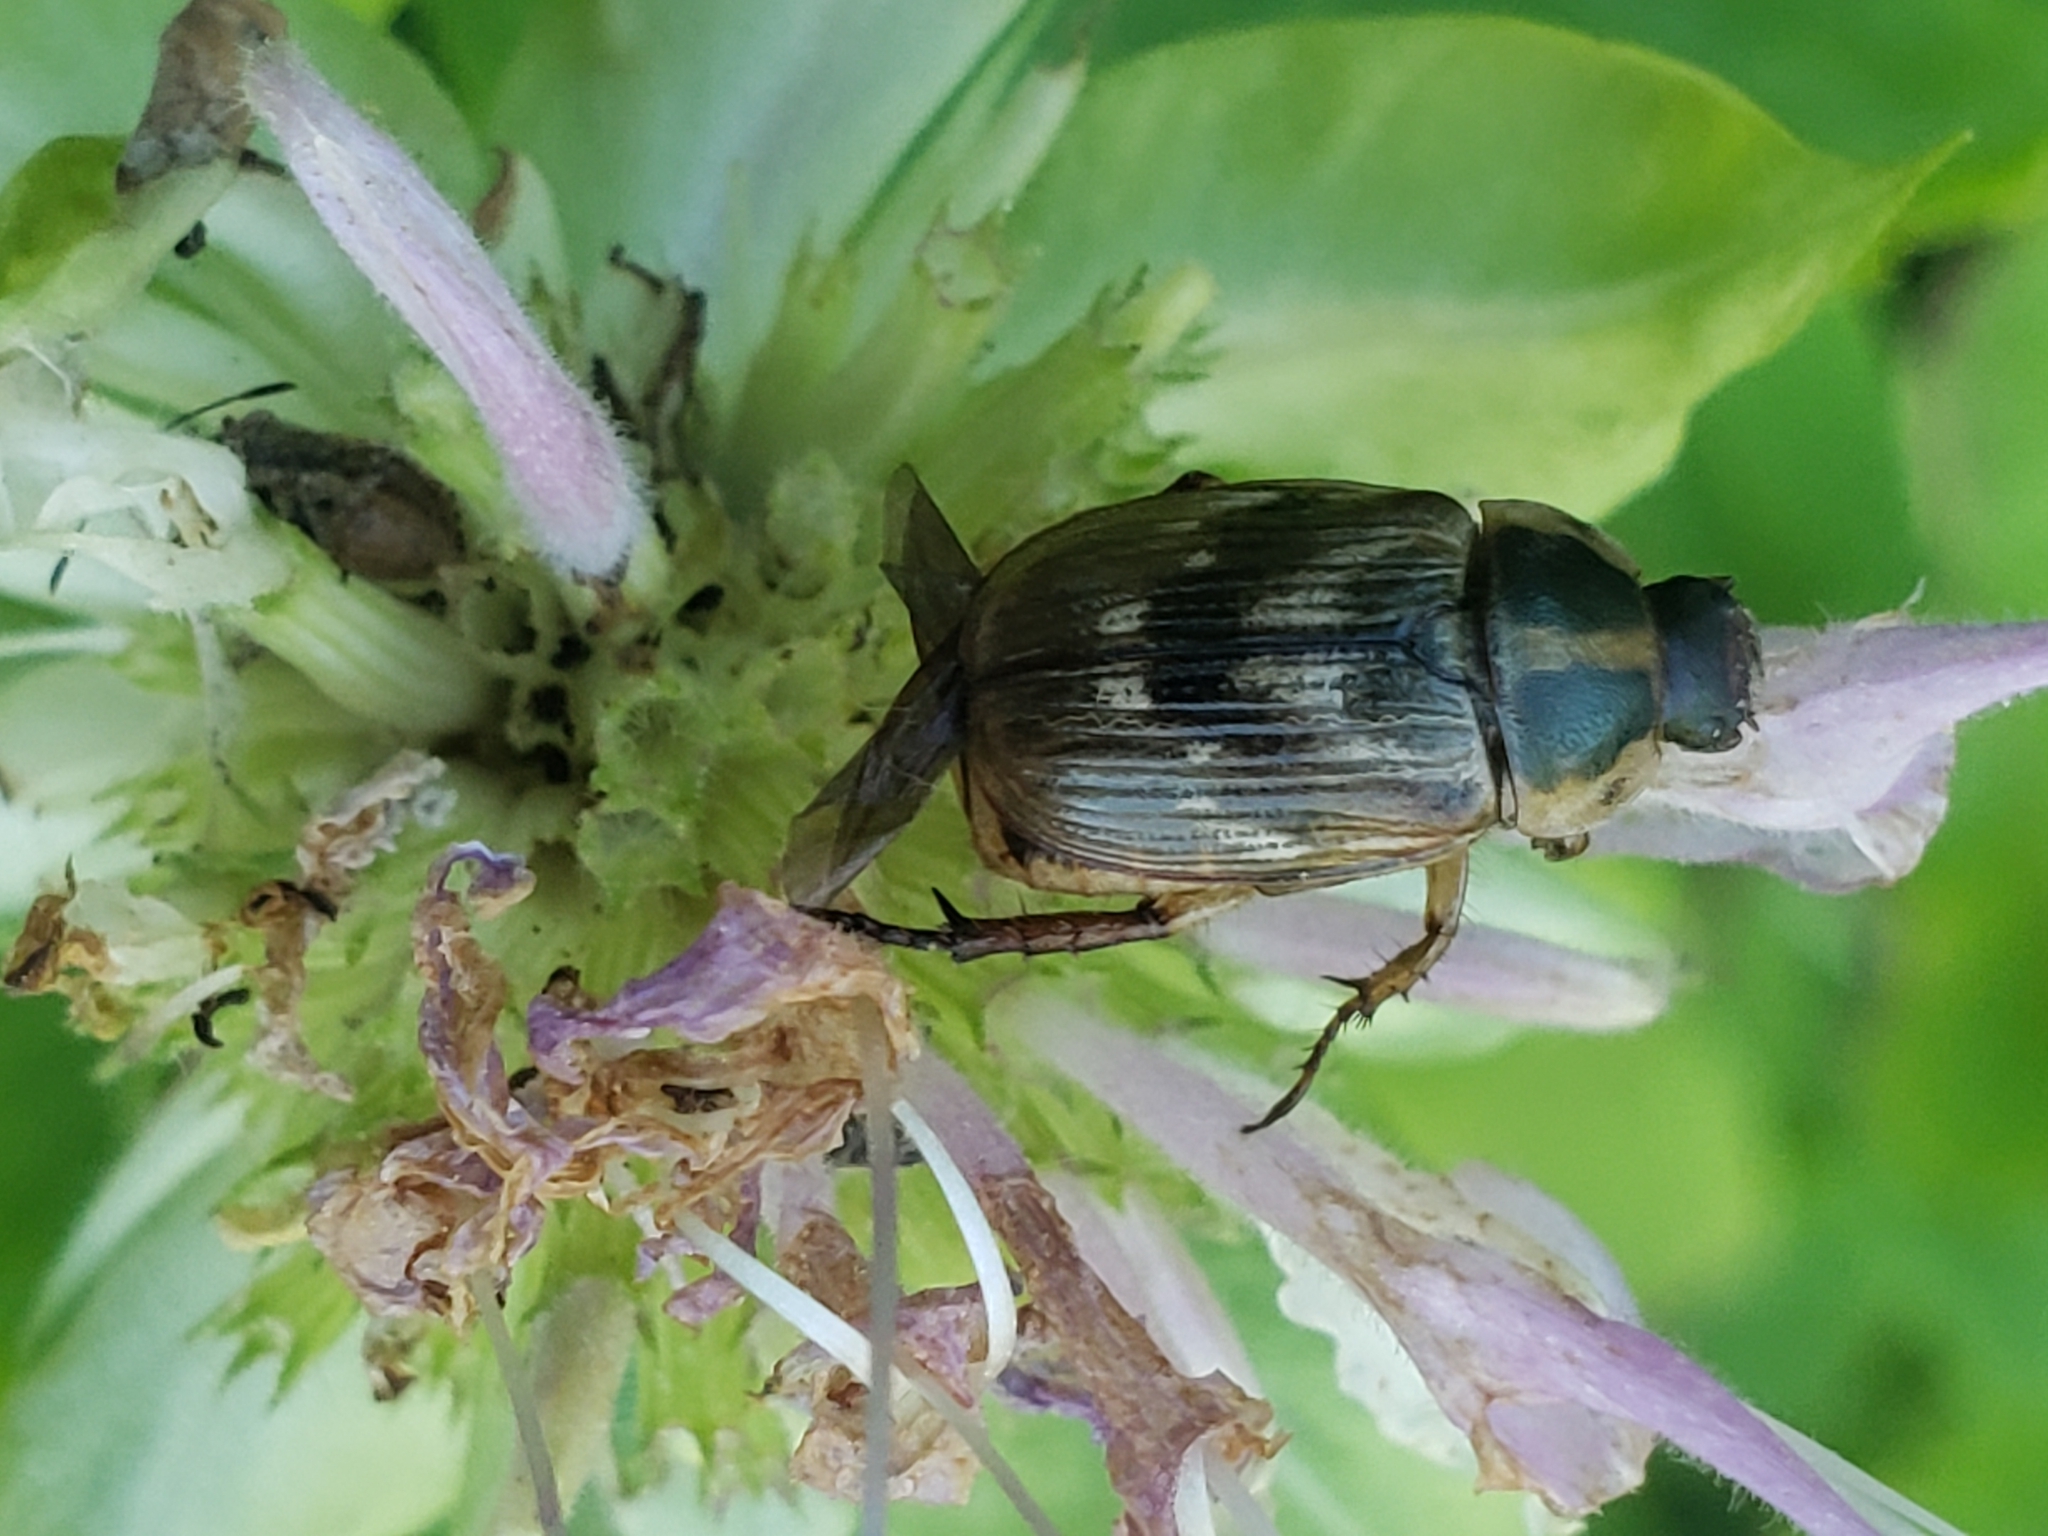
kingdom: Animalia
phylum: Arthropoda
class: Insecta
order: Coleoptera
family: Scarabaeidae
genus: Exomala
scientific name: Exomala orientalis
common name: Oriental beetle
